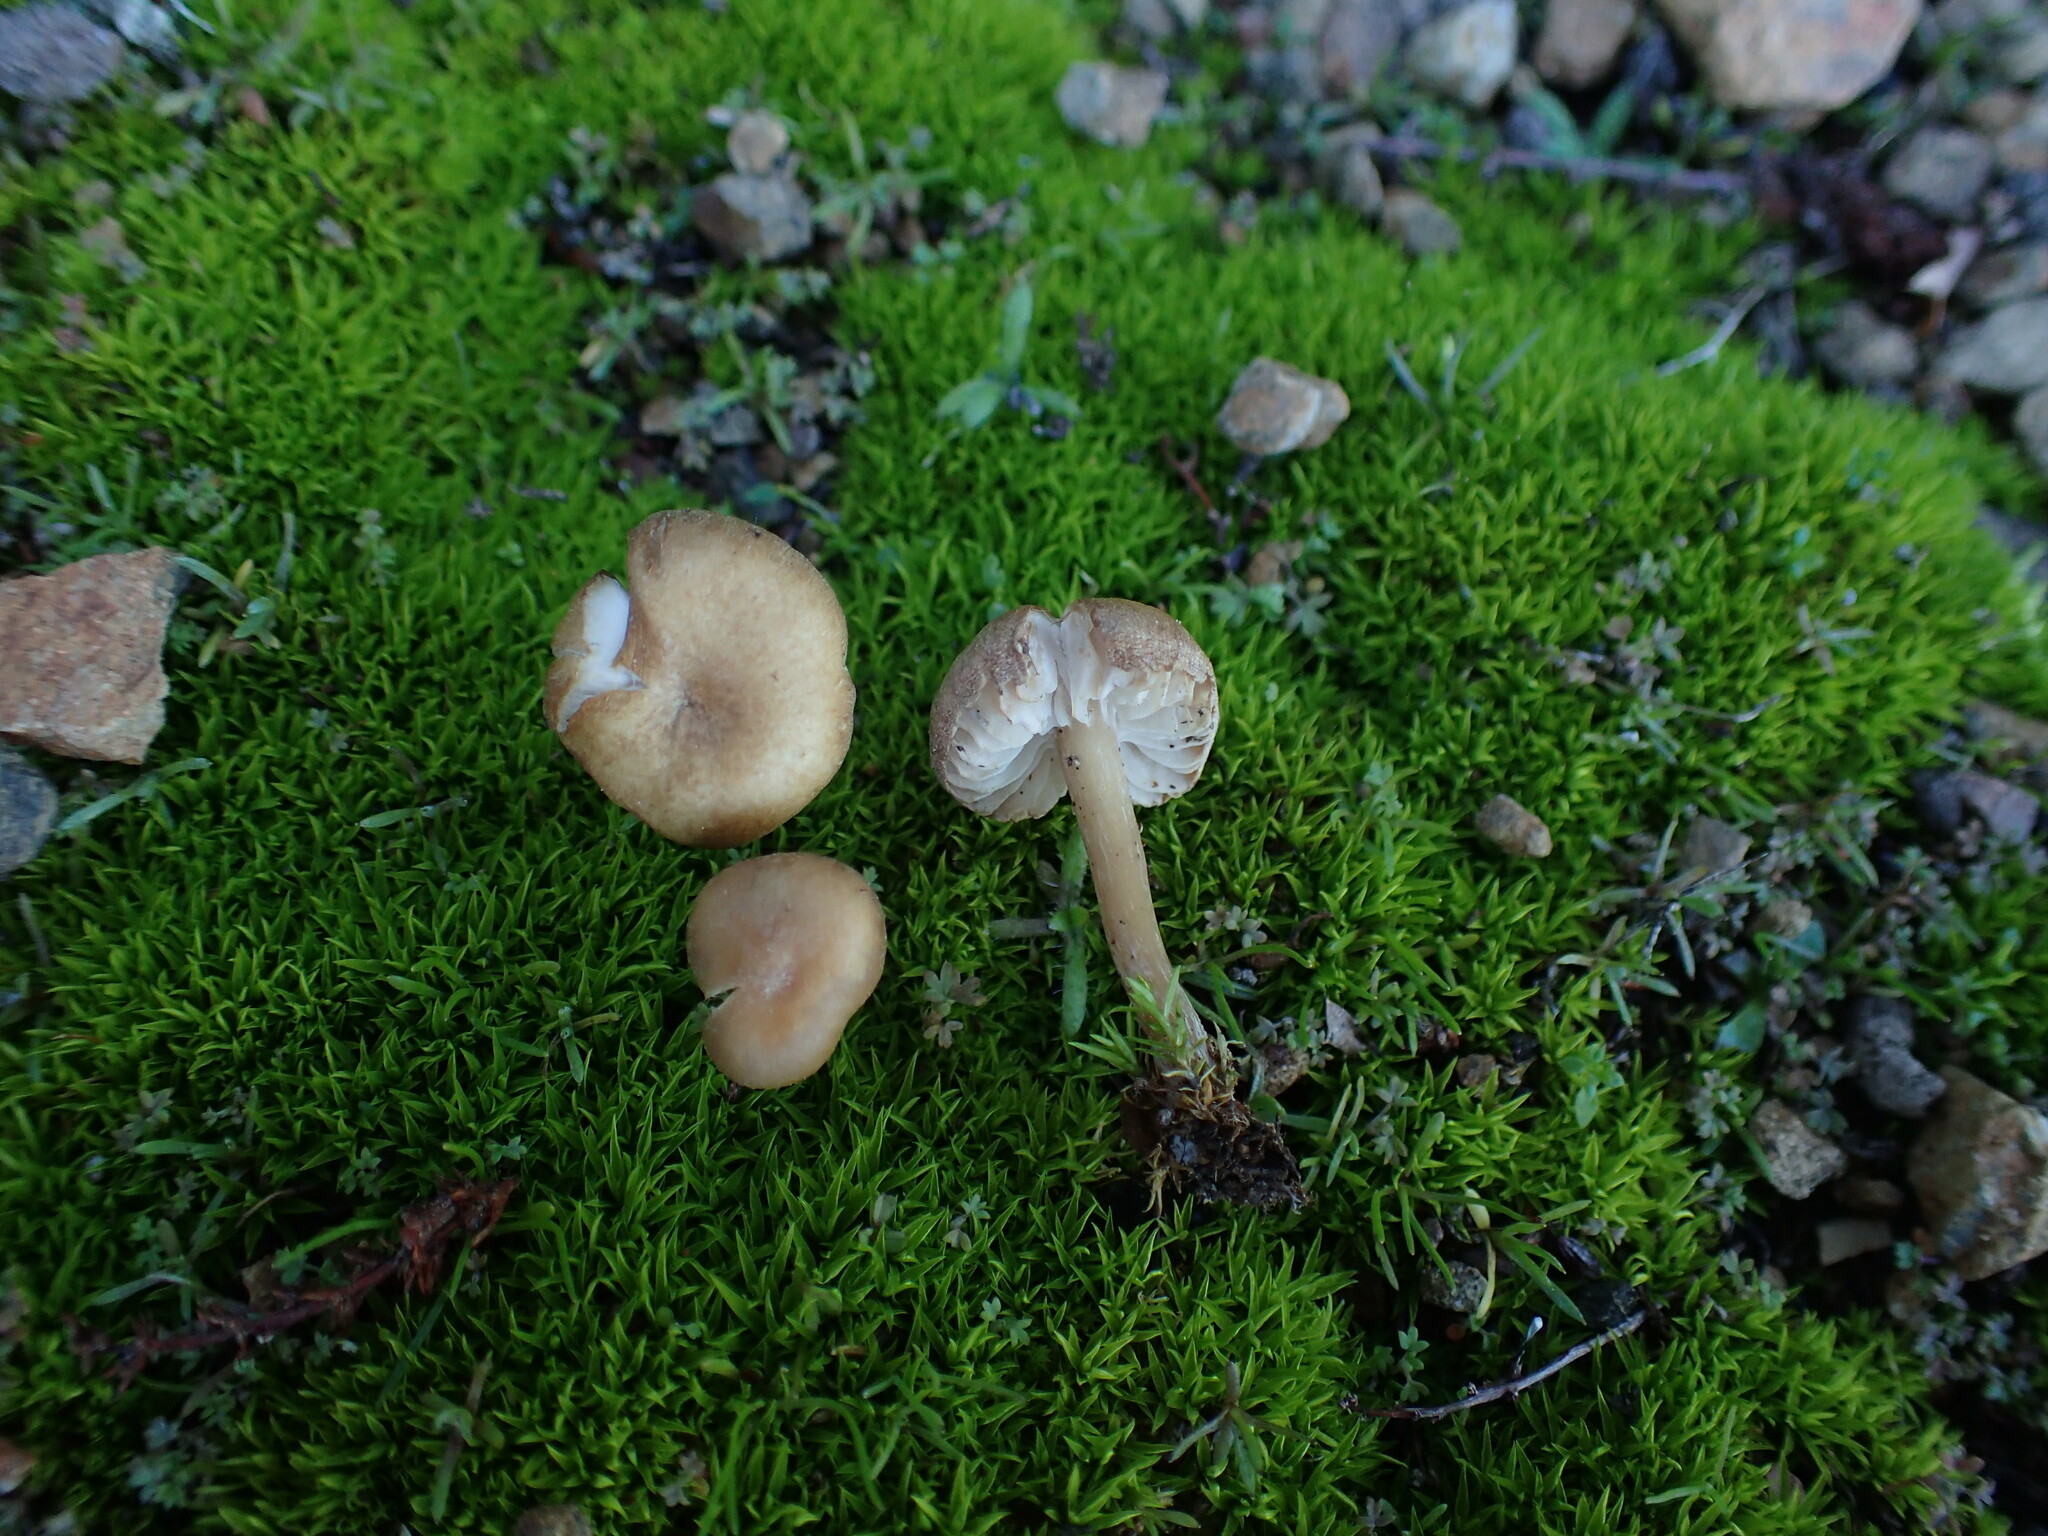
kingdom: Fungi
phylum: Basidiomycota
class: Agaricomycetes
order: Agaricales
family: Callistosporiaceae
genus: Pseudolaccaria
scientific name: Pseudolaccaria pachyphylla
